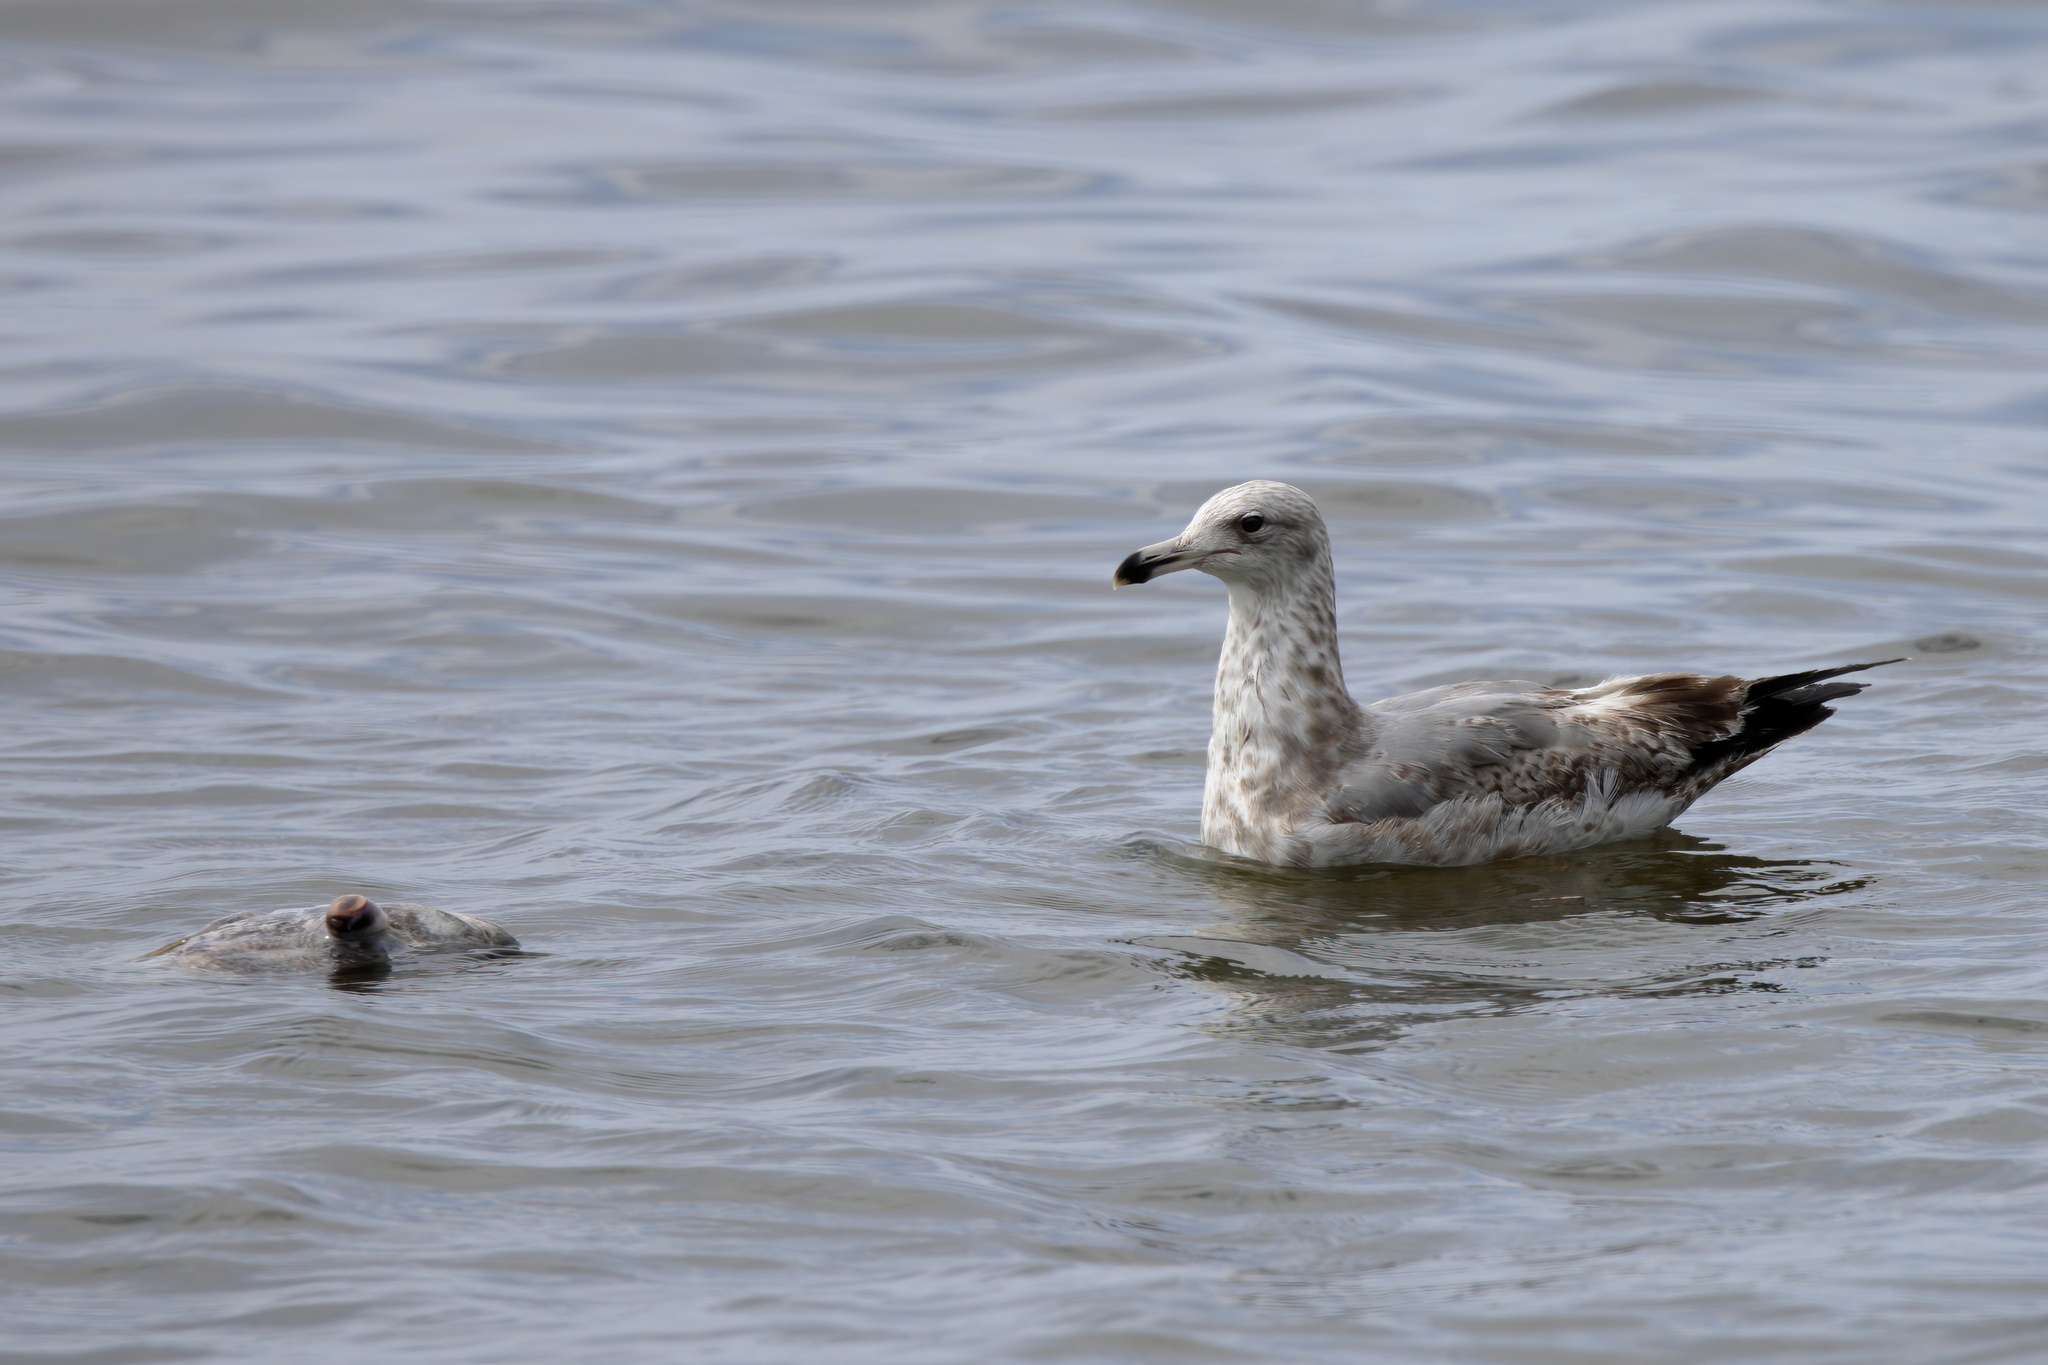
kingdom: Animalia
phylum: Chordata
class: Aves
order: Charadriiformes
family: Laridae
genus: Larus
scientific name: Larus delawarensis
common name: Ring-billed gull
